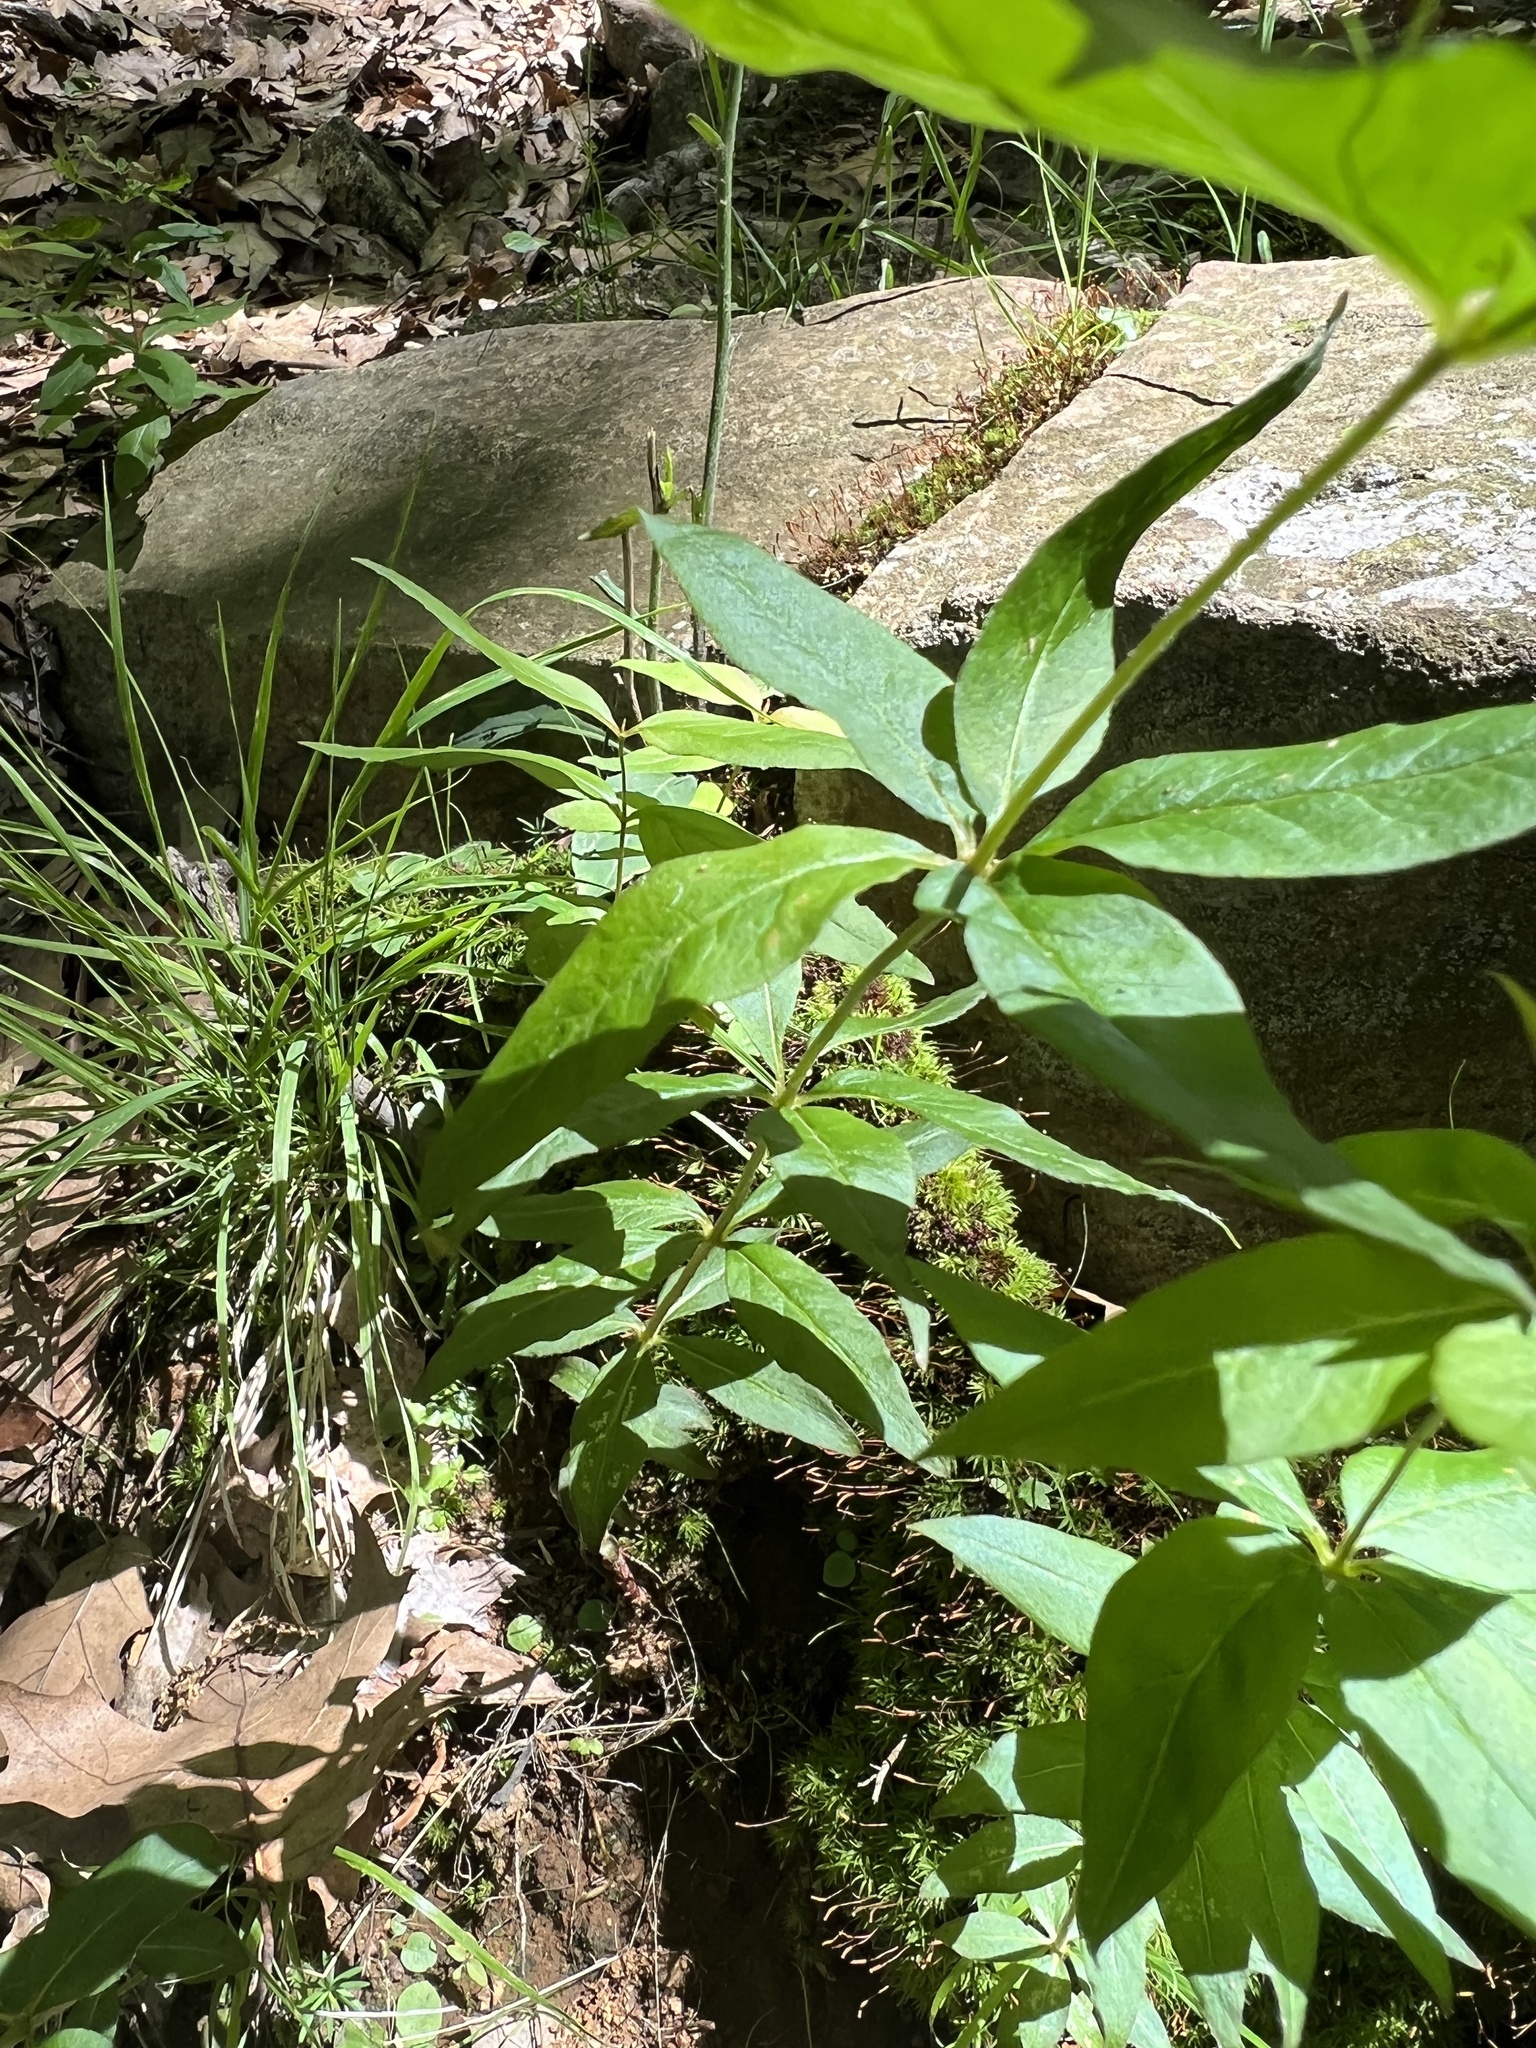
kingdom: Plantae
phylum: Tracheophyta
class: Magnoliopsida
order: Ericales
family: Primulaceae
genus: Lysimachia
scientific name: Lysimachia quadrifolia
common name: Whorled loosestrife
